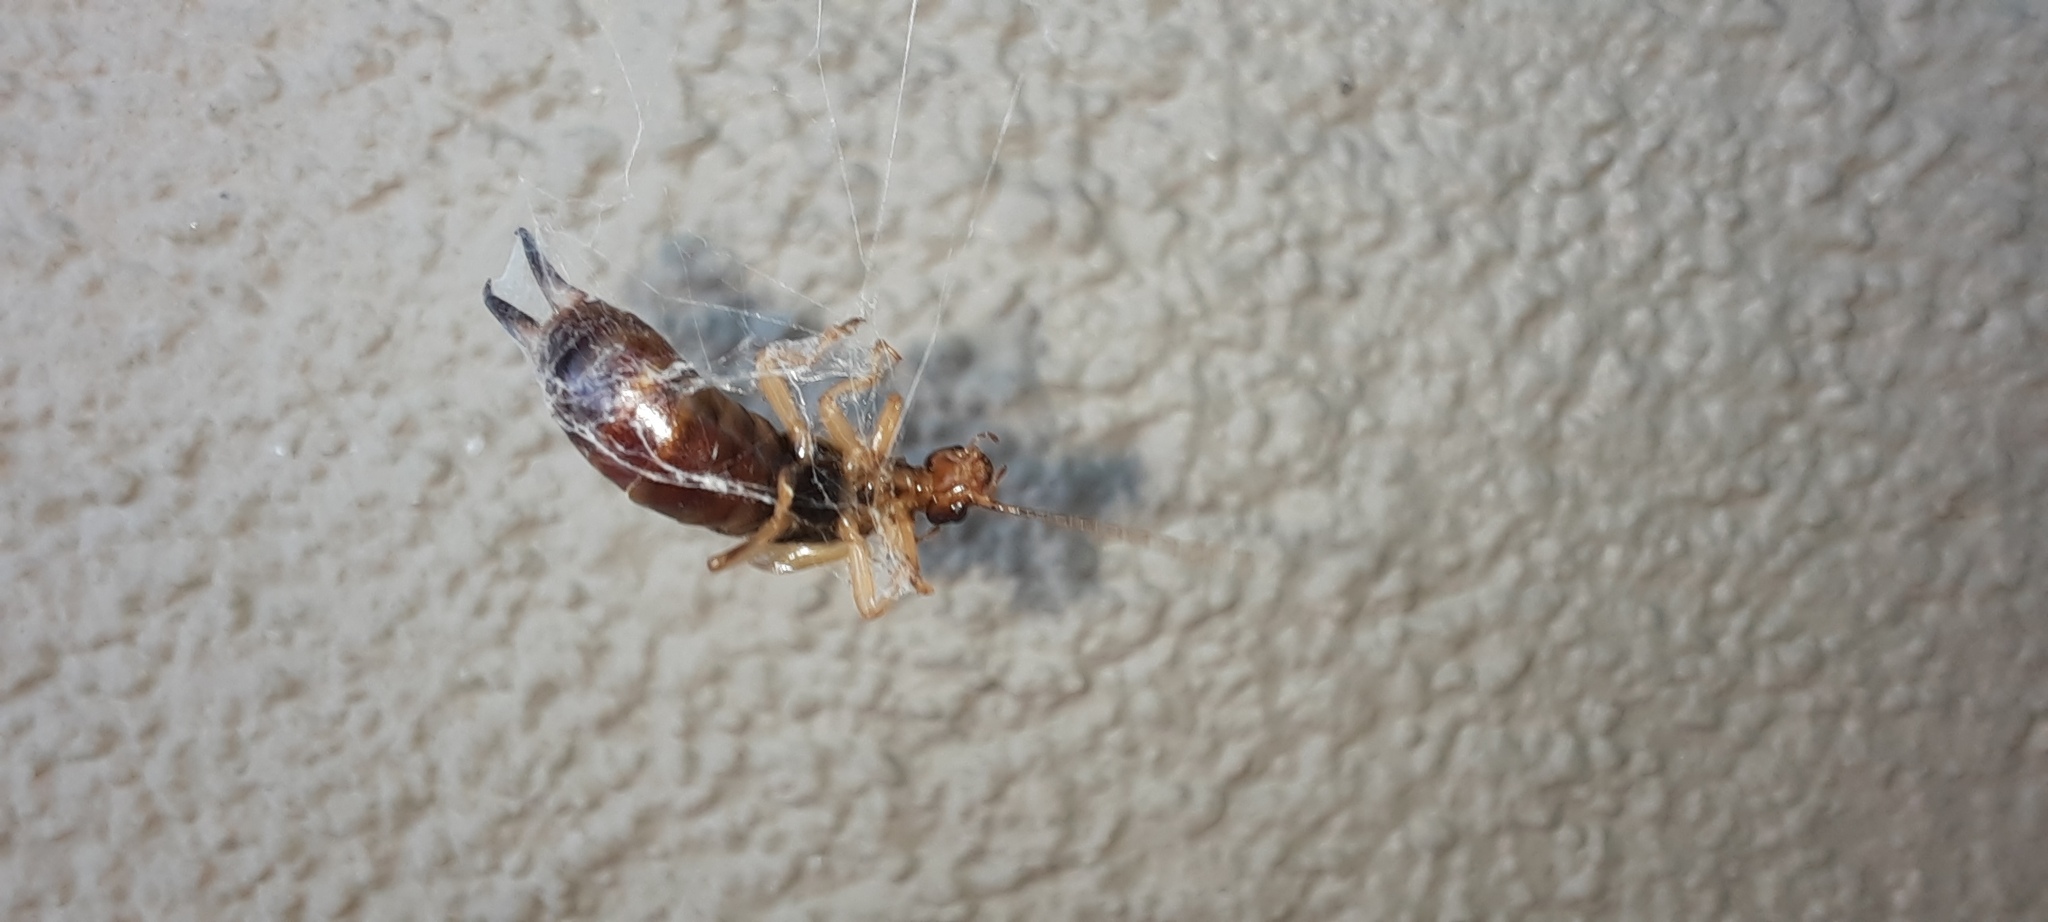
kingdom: Animalia
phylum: Arthropoda
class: Arachnida
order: Araneae
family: Theridiidae
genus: Cryptachaea
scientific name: Cryptachaea gigantipes
